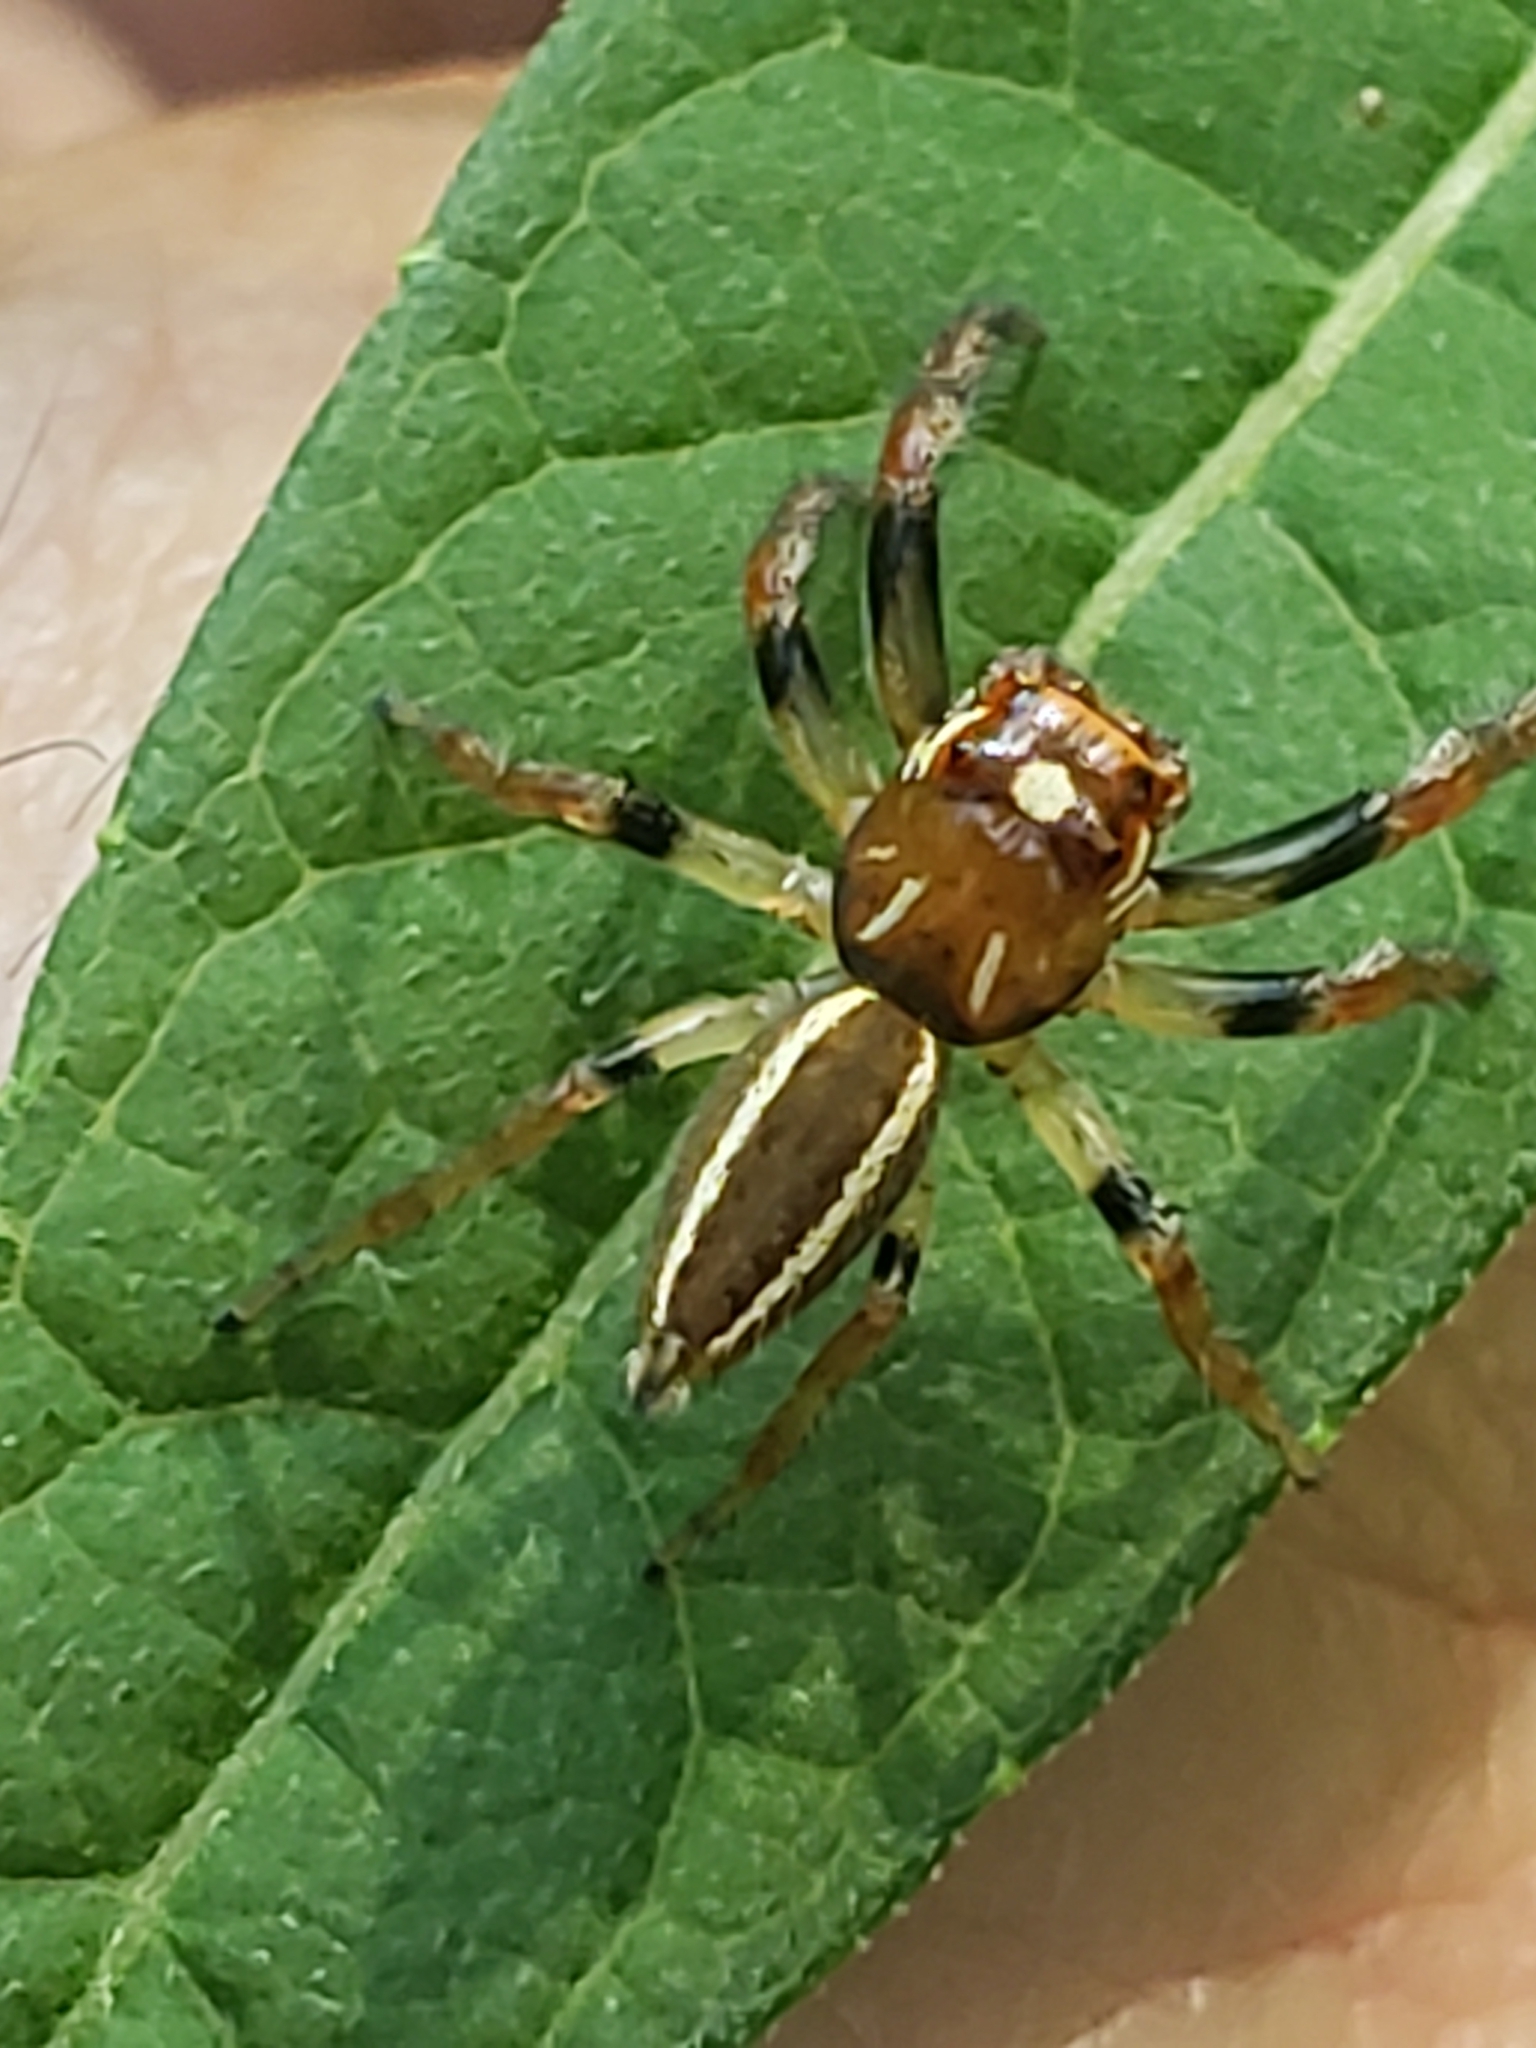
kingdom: Animalia
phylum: Arthropoda
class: Arachnida
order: Araneae
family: Salticidae
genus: Colonus
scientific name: Colonus sylvanus
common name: Jumping spiders
